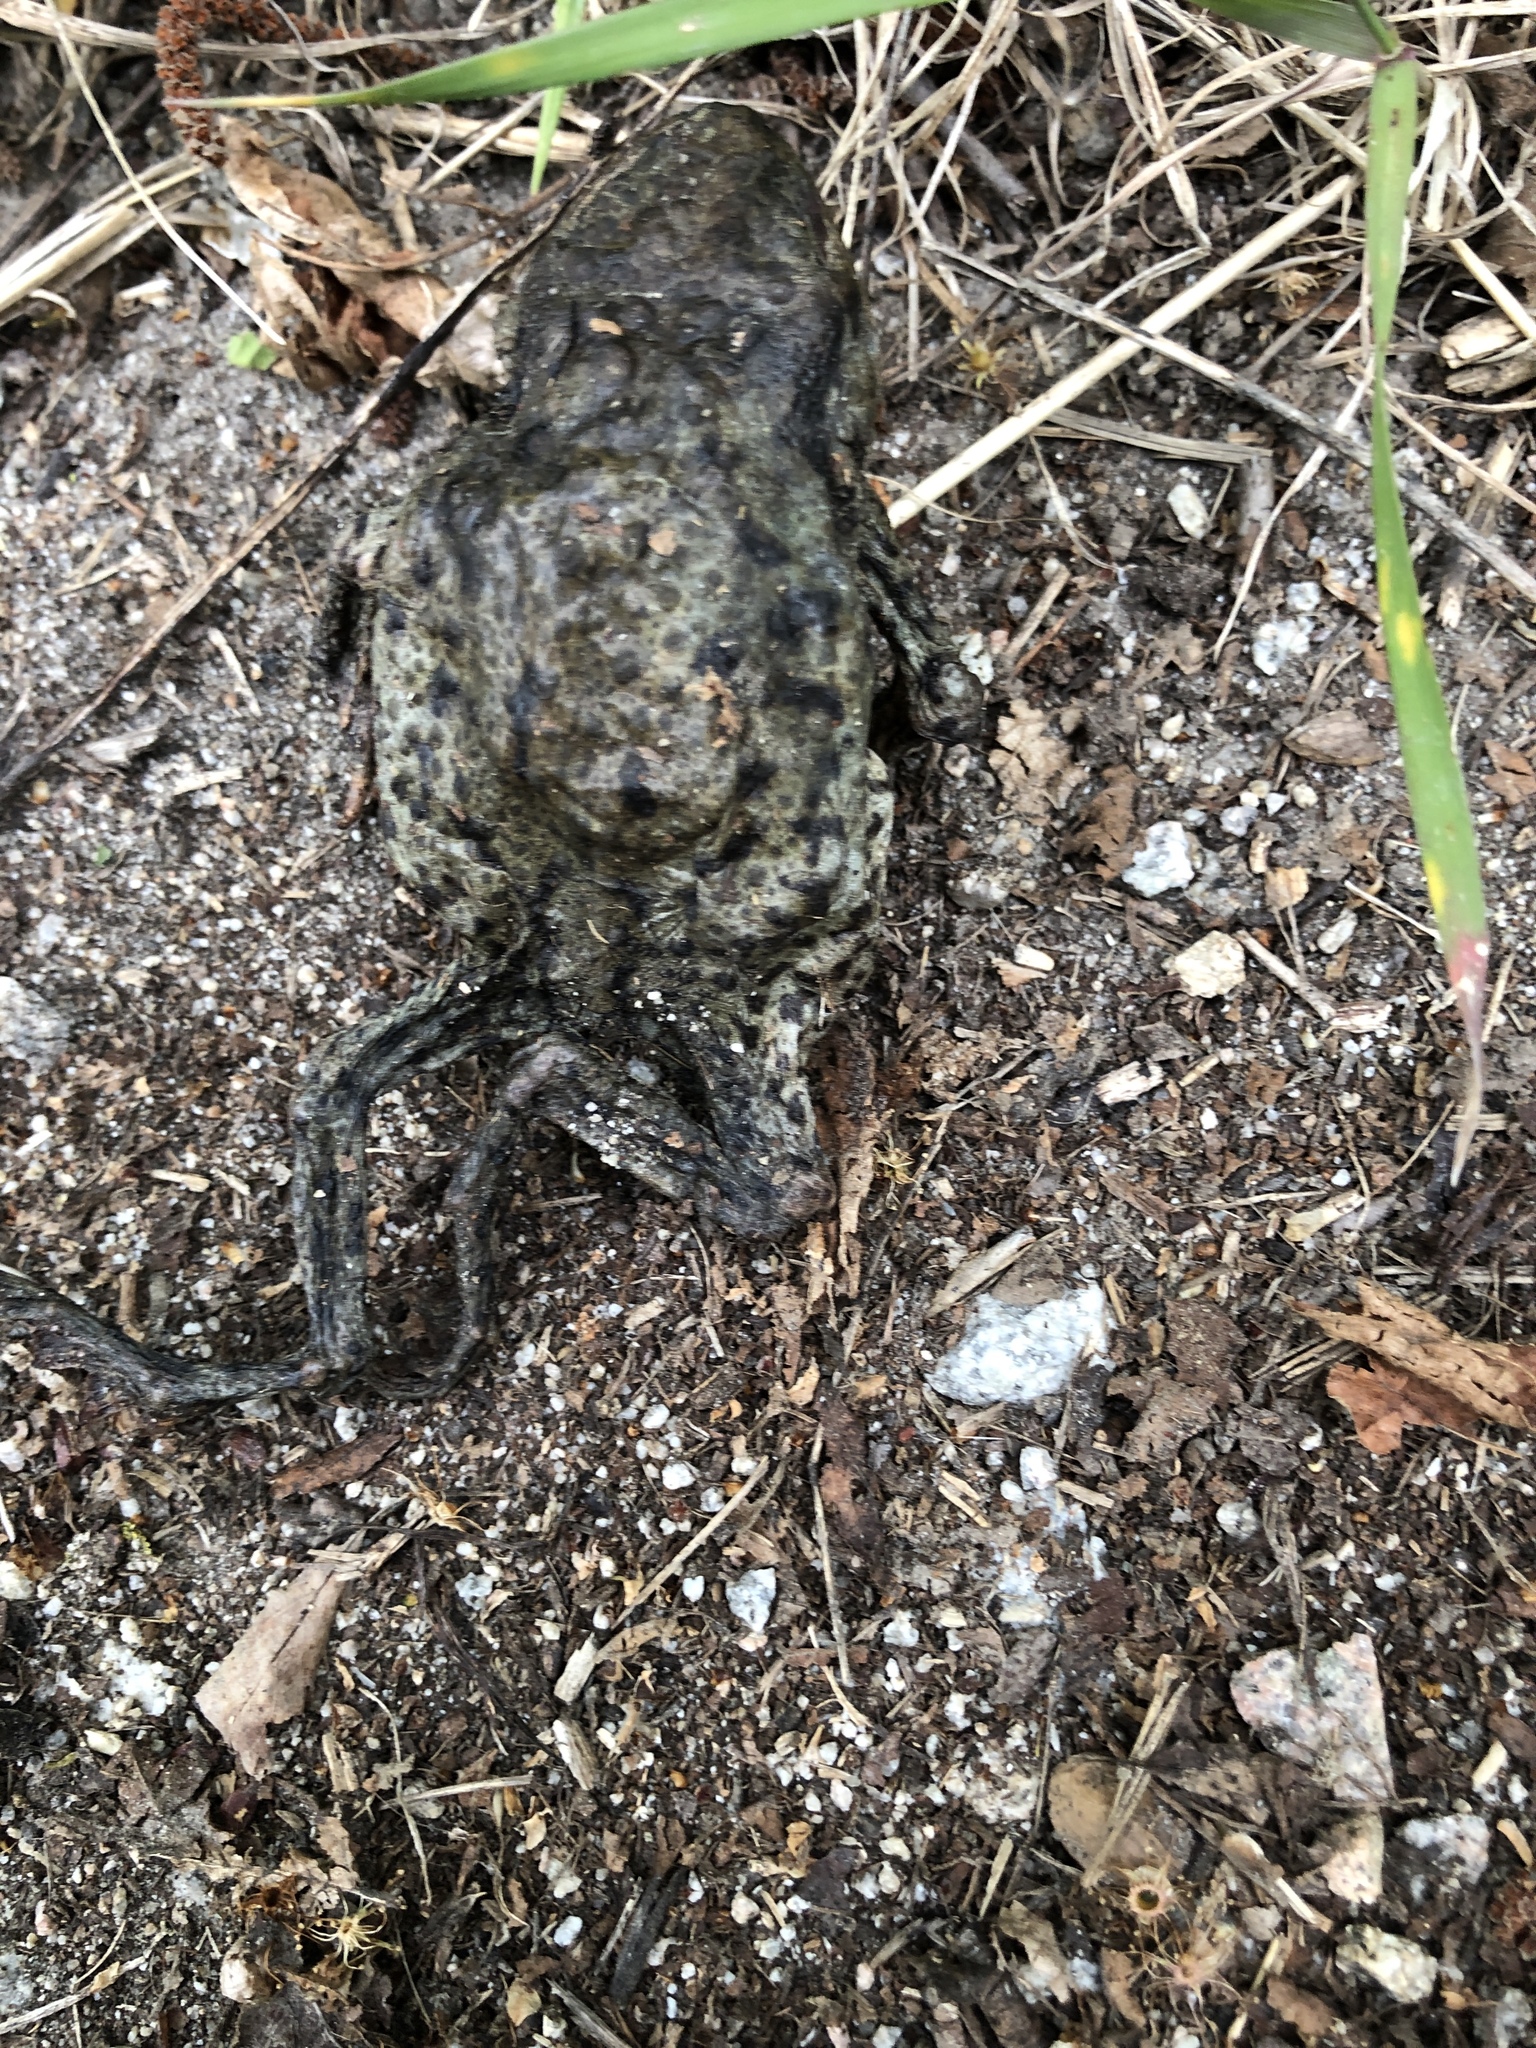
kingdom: Animalia
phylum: Chordata
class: Amphibia
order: Anura
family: Bufonidae
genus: Bufo
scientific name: Bufo bufo
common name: Common toad
